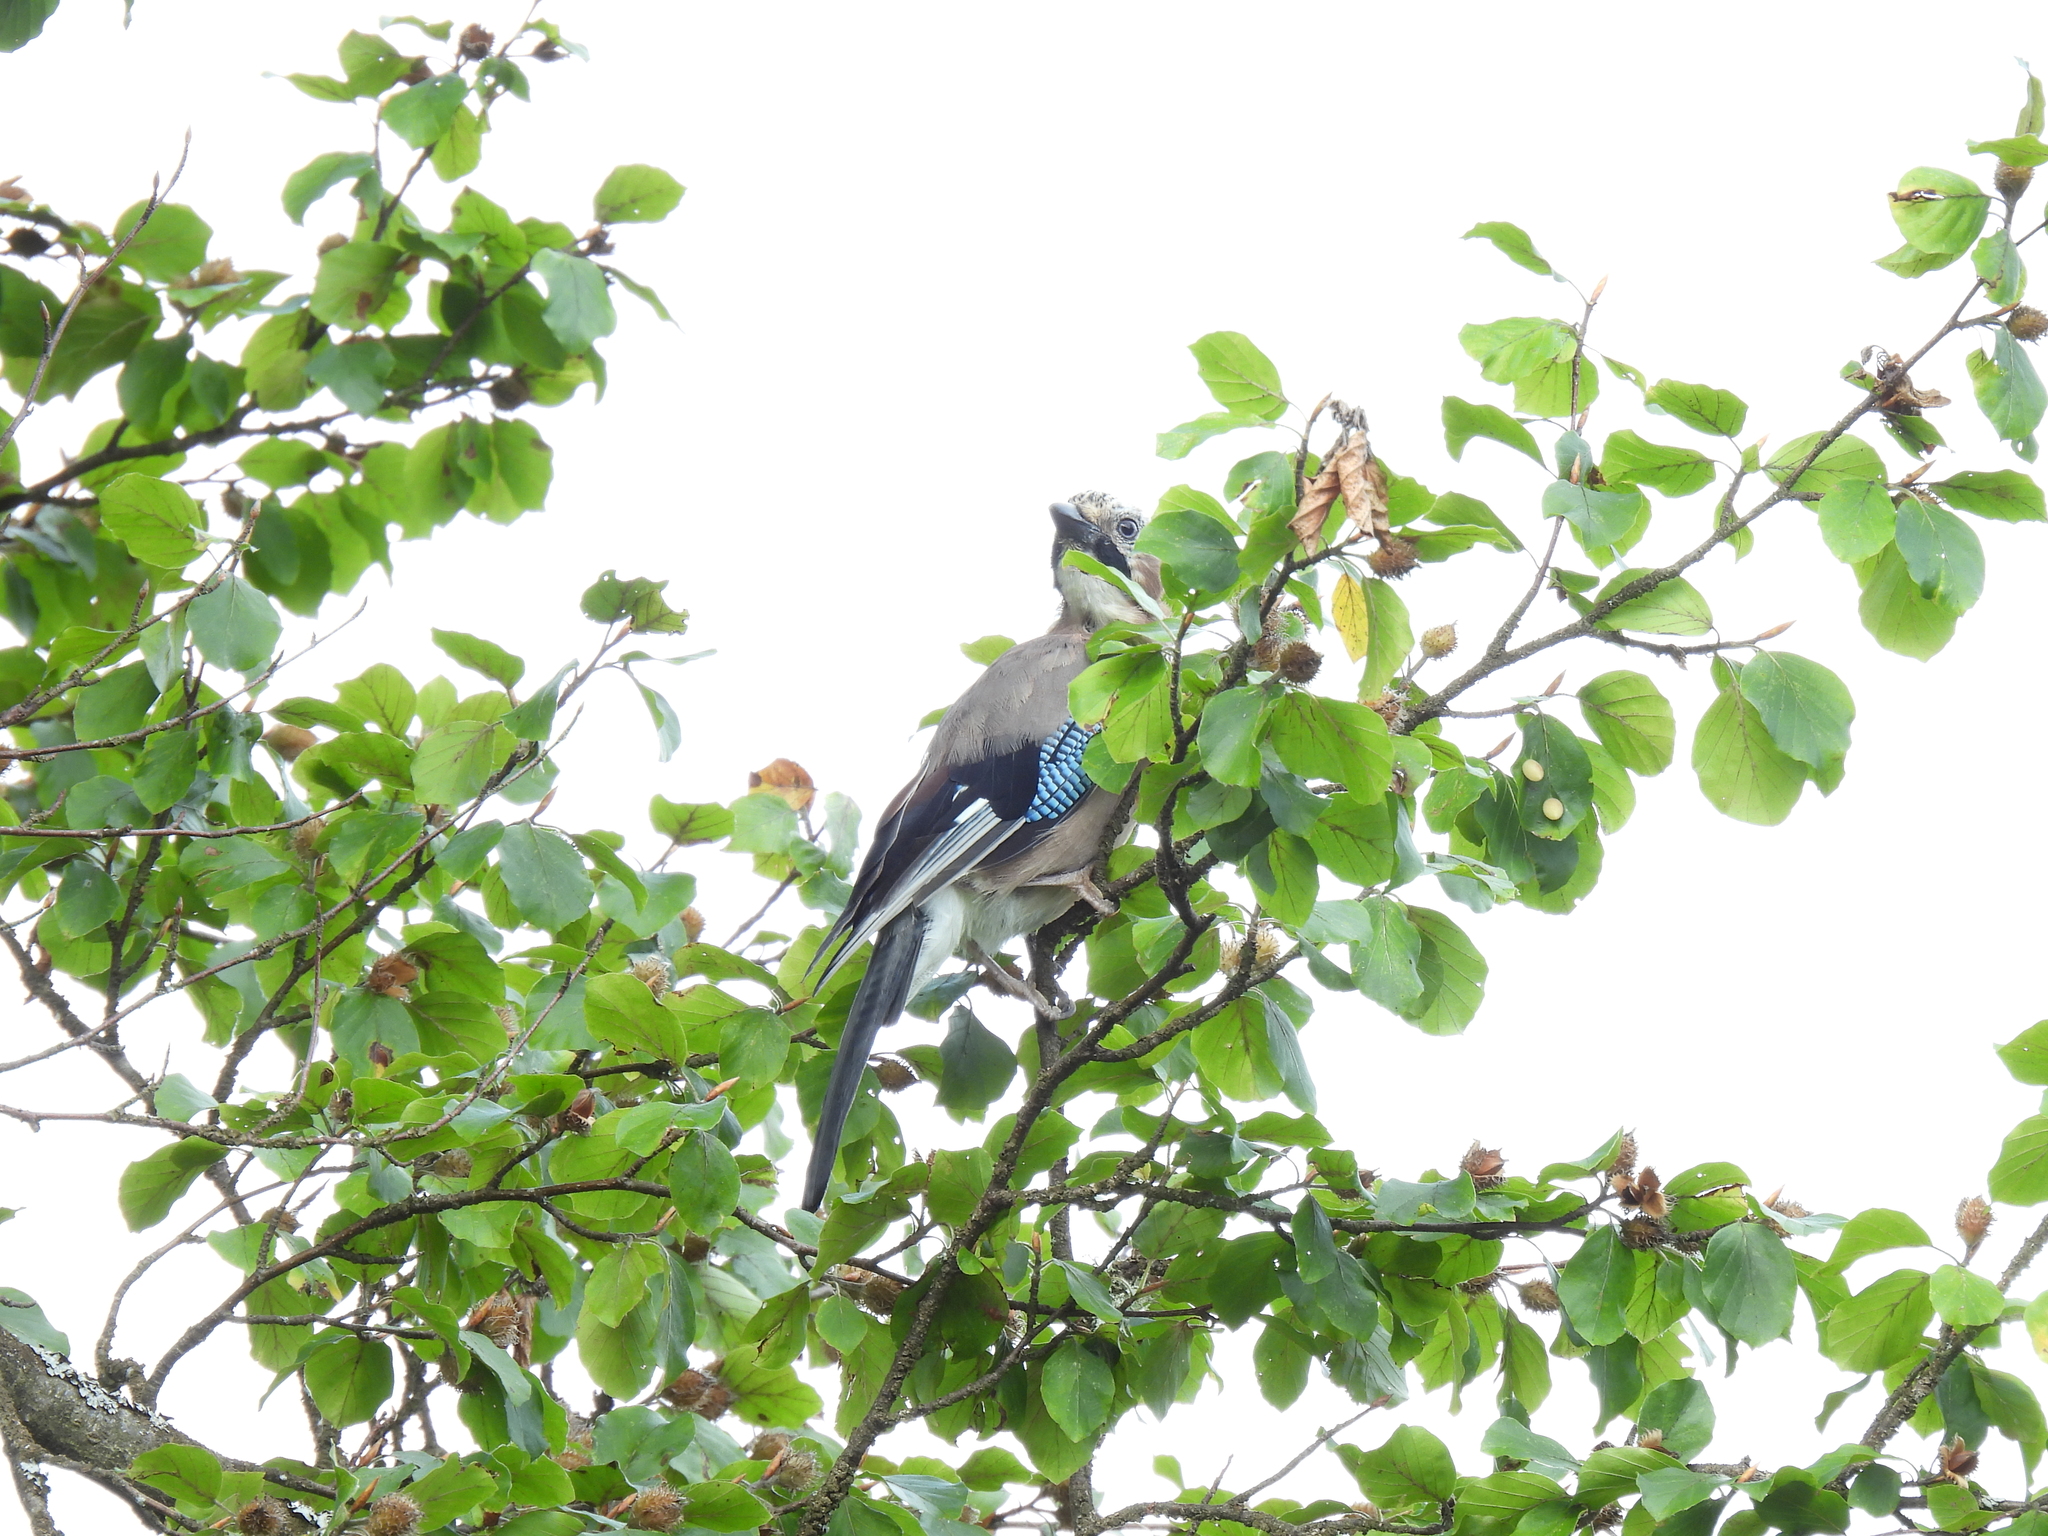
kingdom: Animalia
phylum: Chordata
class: Aves
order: Passeriformes
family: Corvidae
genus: Garrulus
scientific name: Garrulus glandarius
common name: Eurasian jay
